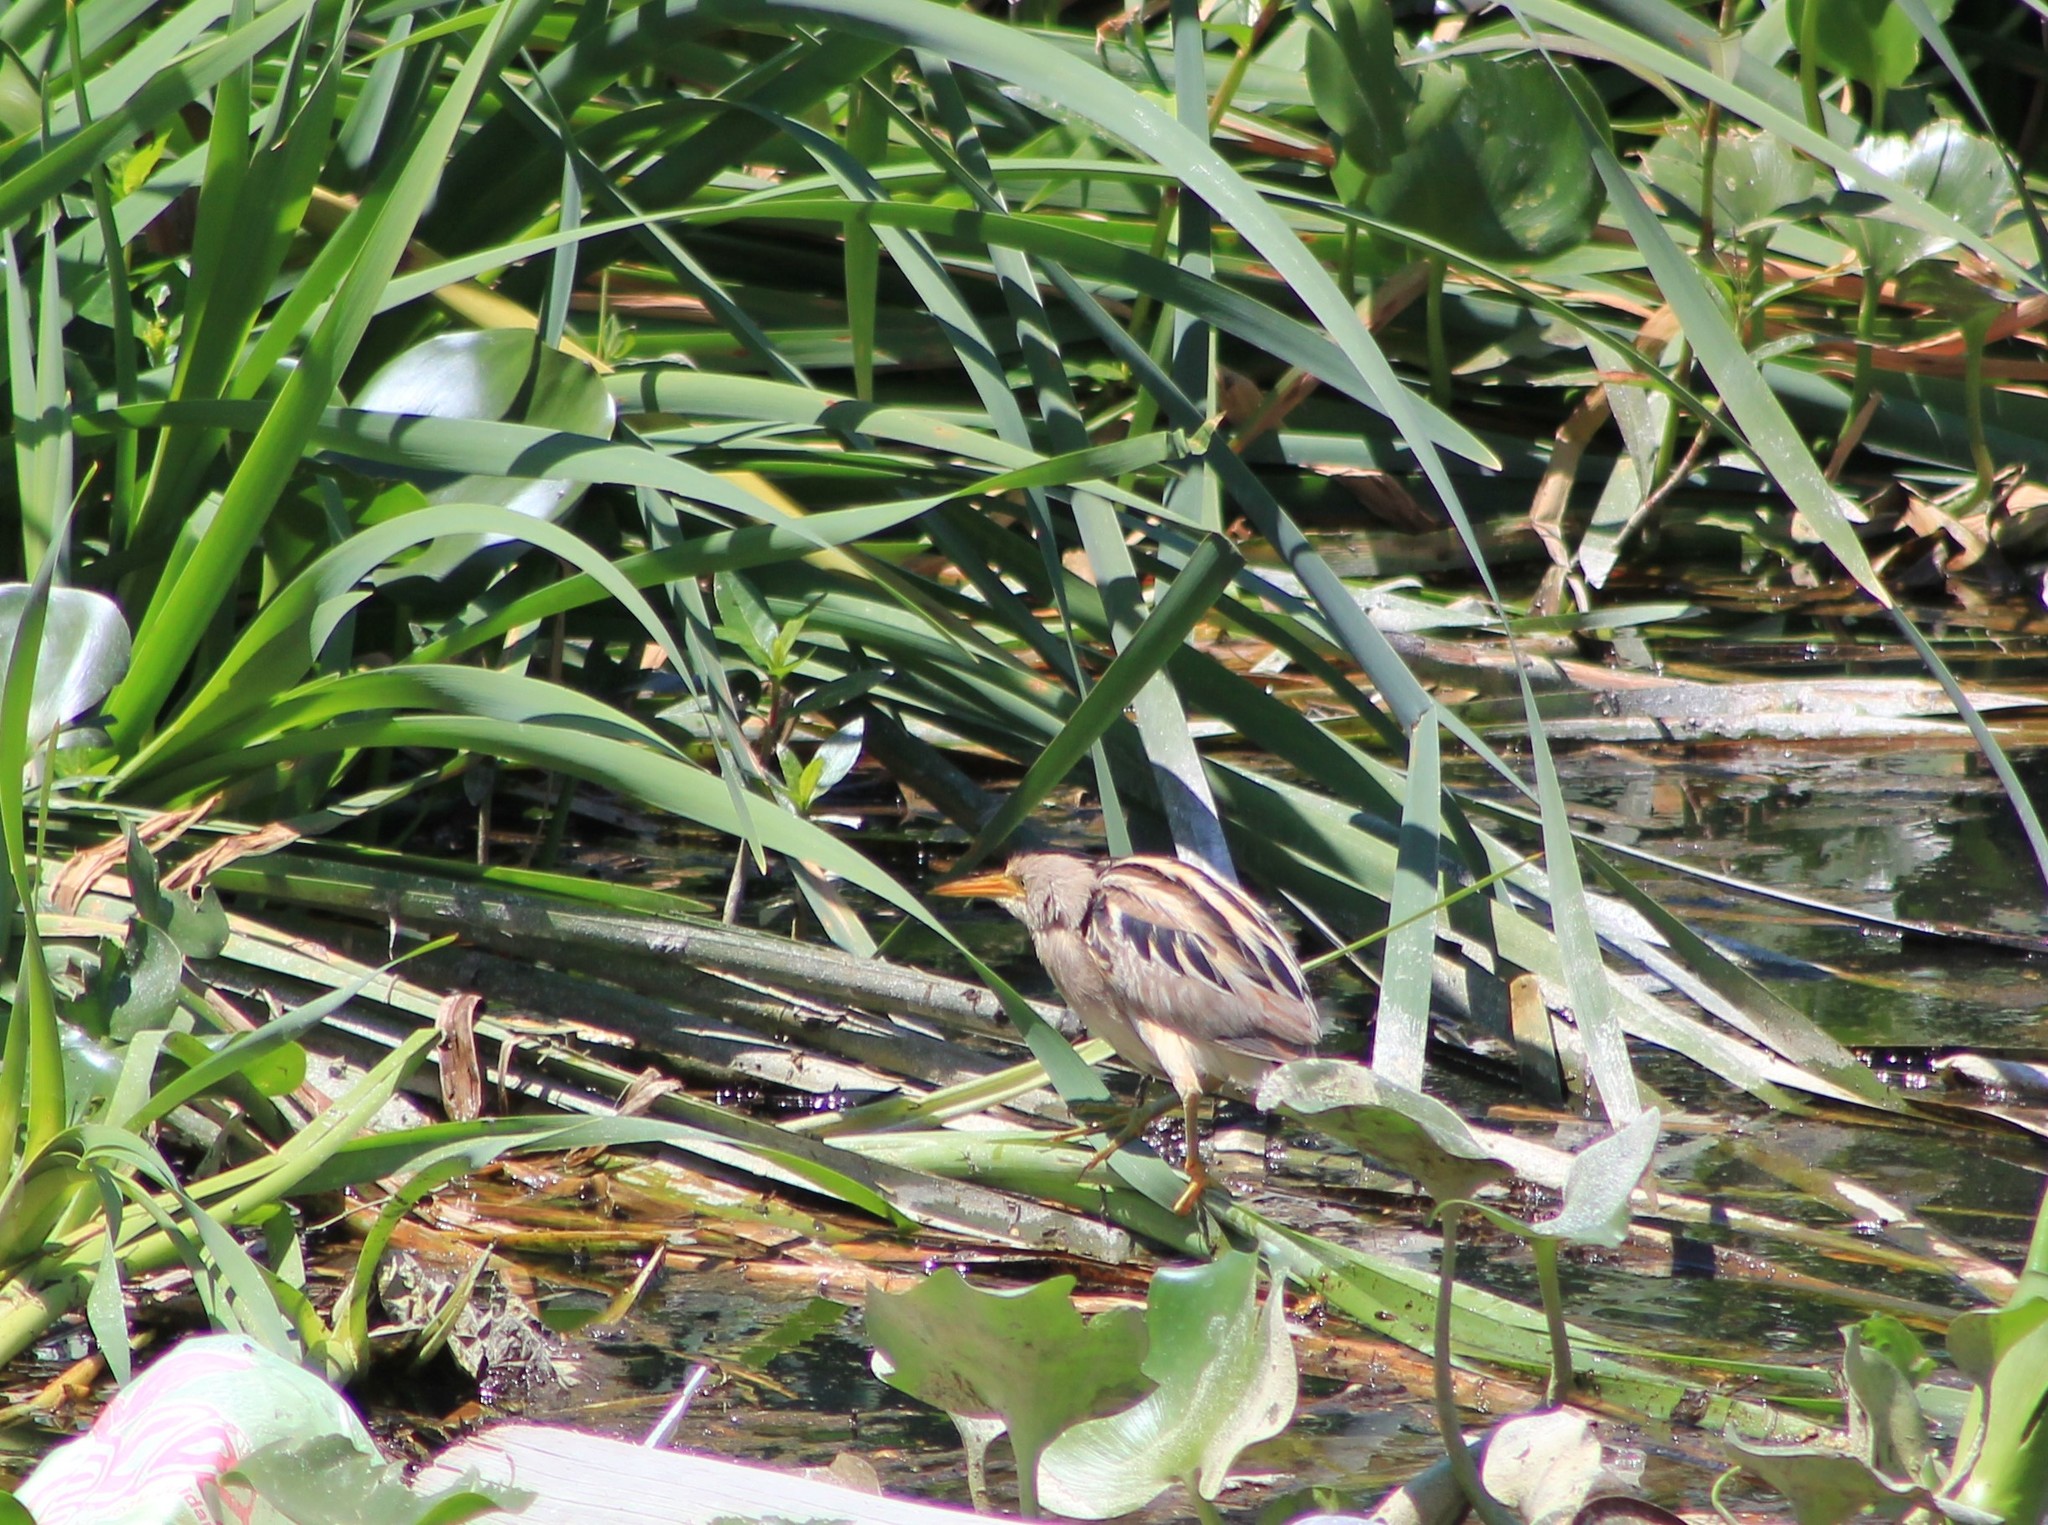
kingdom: Animalia
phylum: Chordata
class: Aves
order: Pelecaniformes
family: Ardeidae
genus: Ixobrychus
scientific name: Ixobrychus involucris
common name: Stripe-backed bittern
